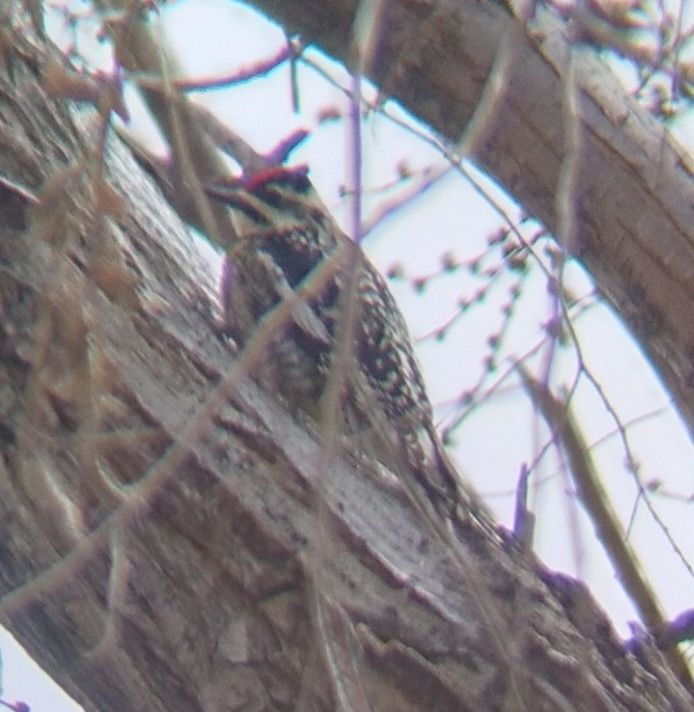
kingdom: Animalia
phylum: Chordata
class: Aves
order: Piciformes
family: Picidae
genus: Sphyrapicus
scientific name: Sphyrapicus varius
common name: Yellow-bellied sapsucker
